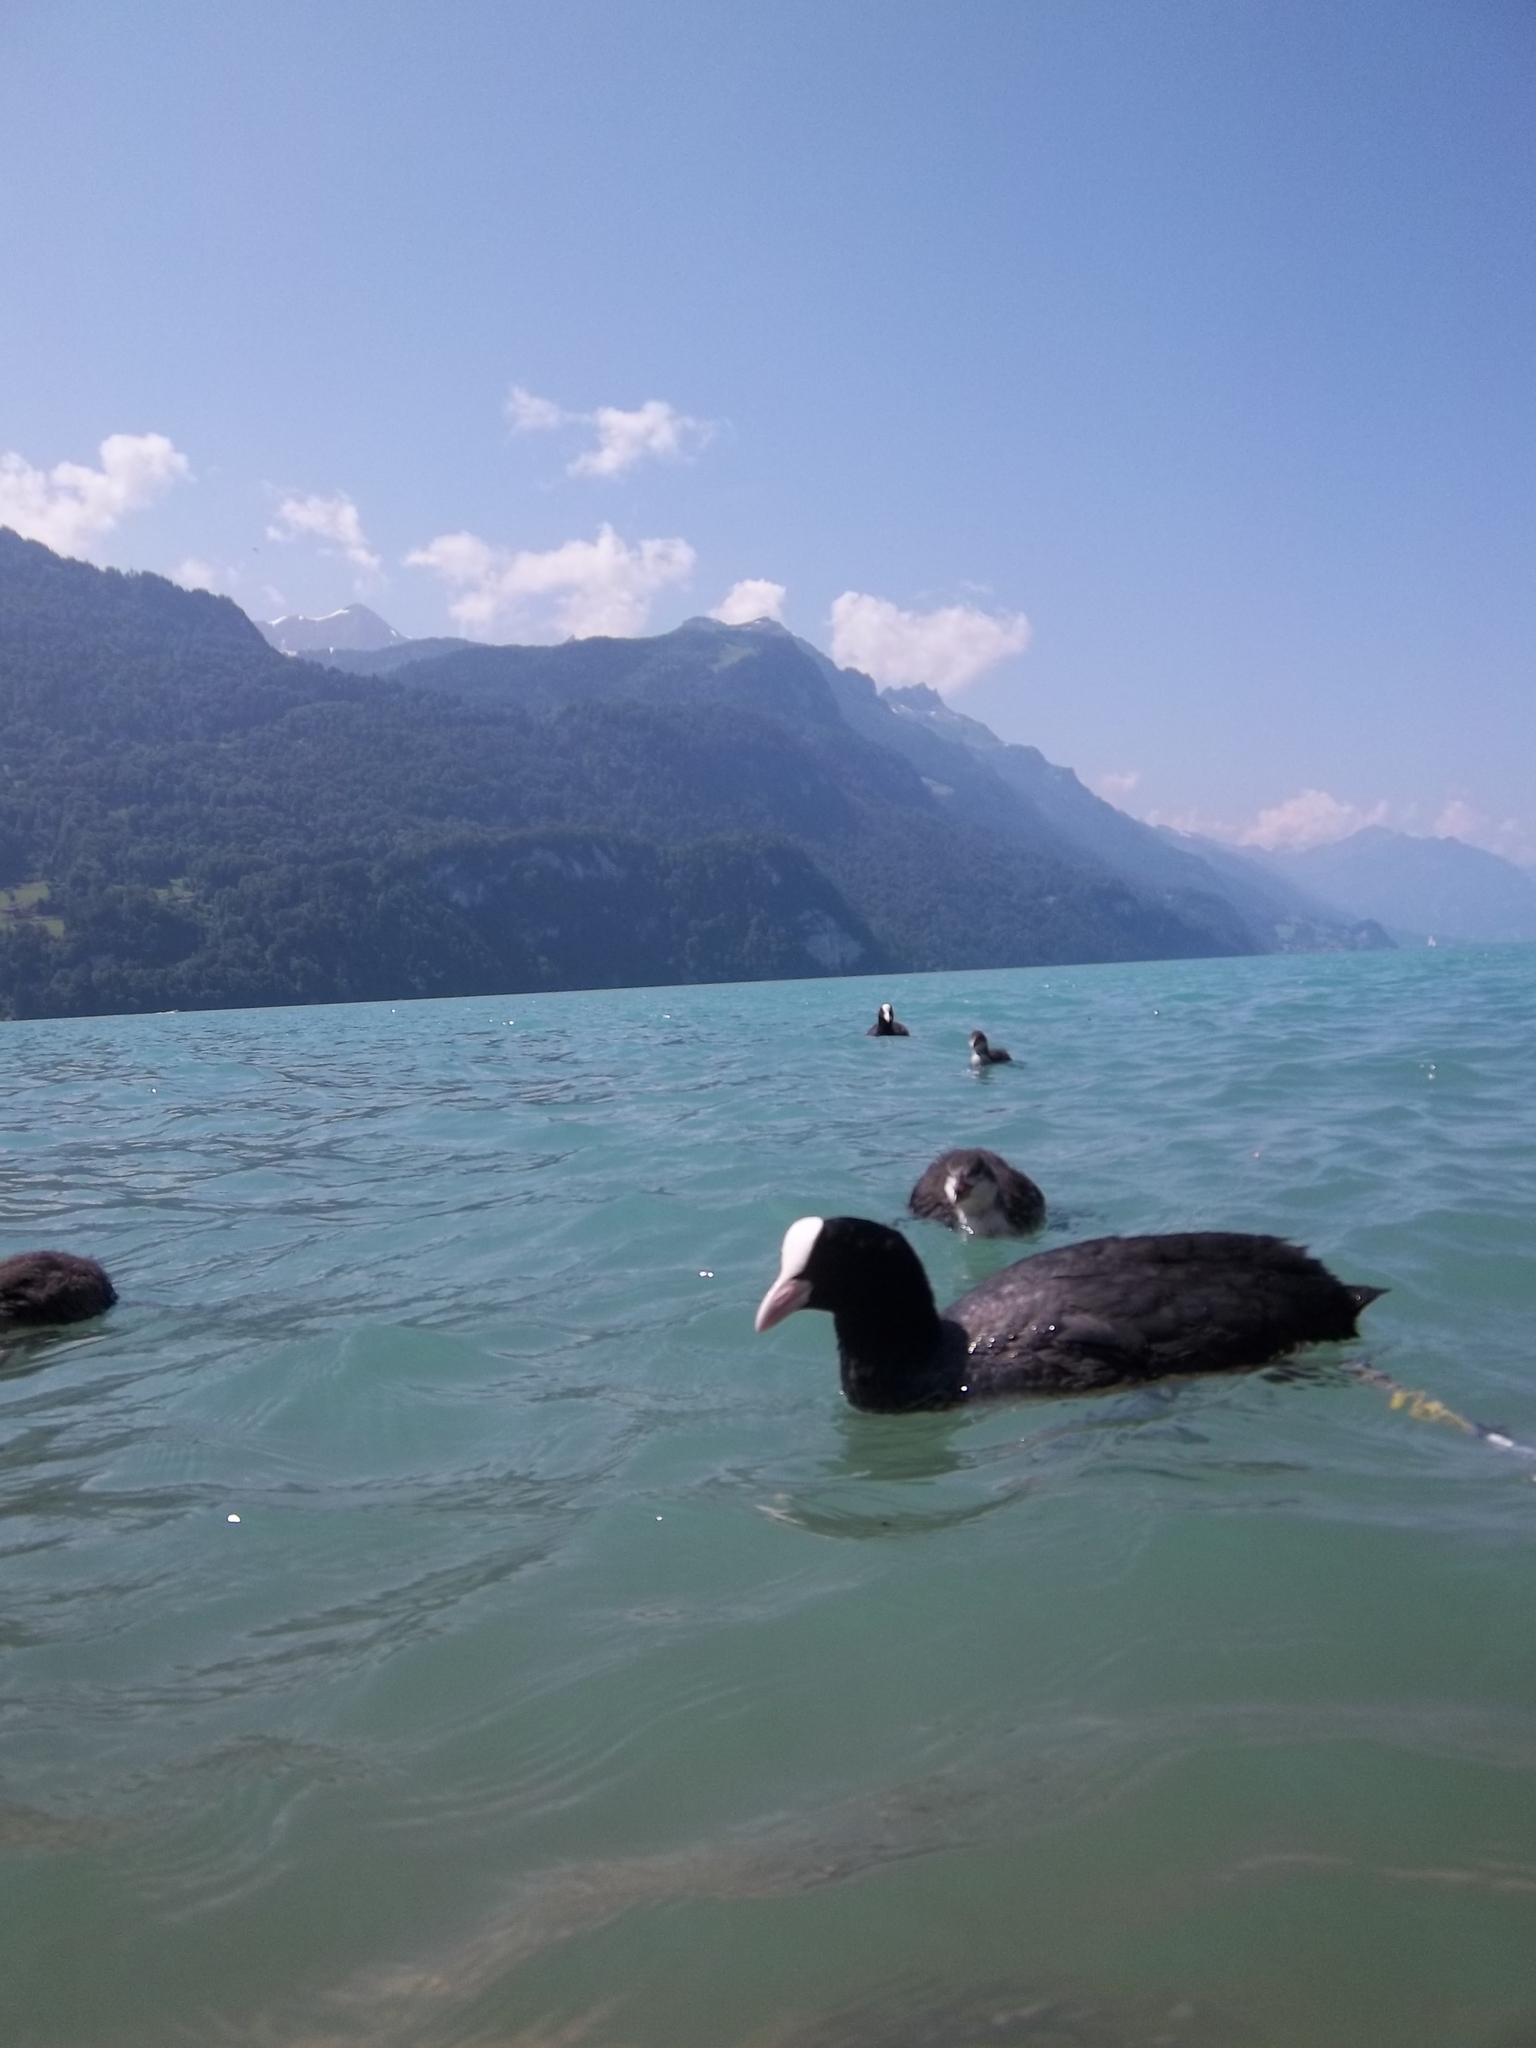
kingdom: Animalia
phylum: Chordata
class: Aves
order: Gruiformes
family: Rallidae
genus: Fulica
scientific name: Fulica atra
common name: Eurasian coot
